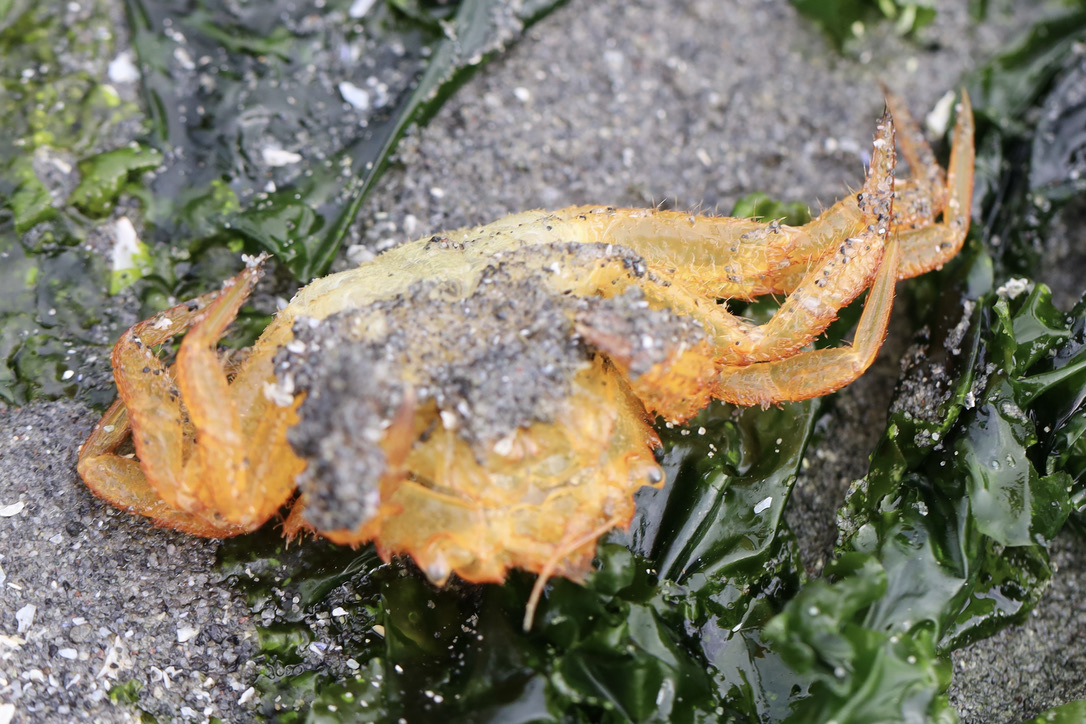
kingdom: Animalia
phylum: Arthropoda
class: Malacostraca
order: Decapoda
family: Cheiragonidae
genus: Telmessus
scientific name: Telmessus cheiragonus
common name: Helmet crab
